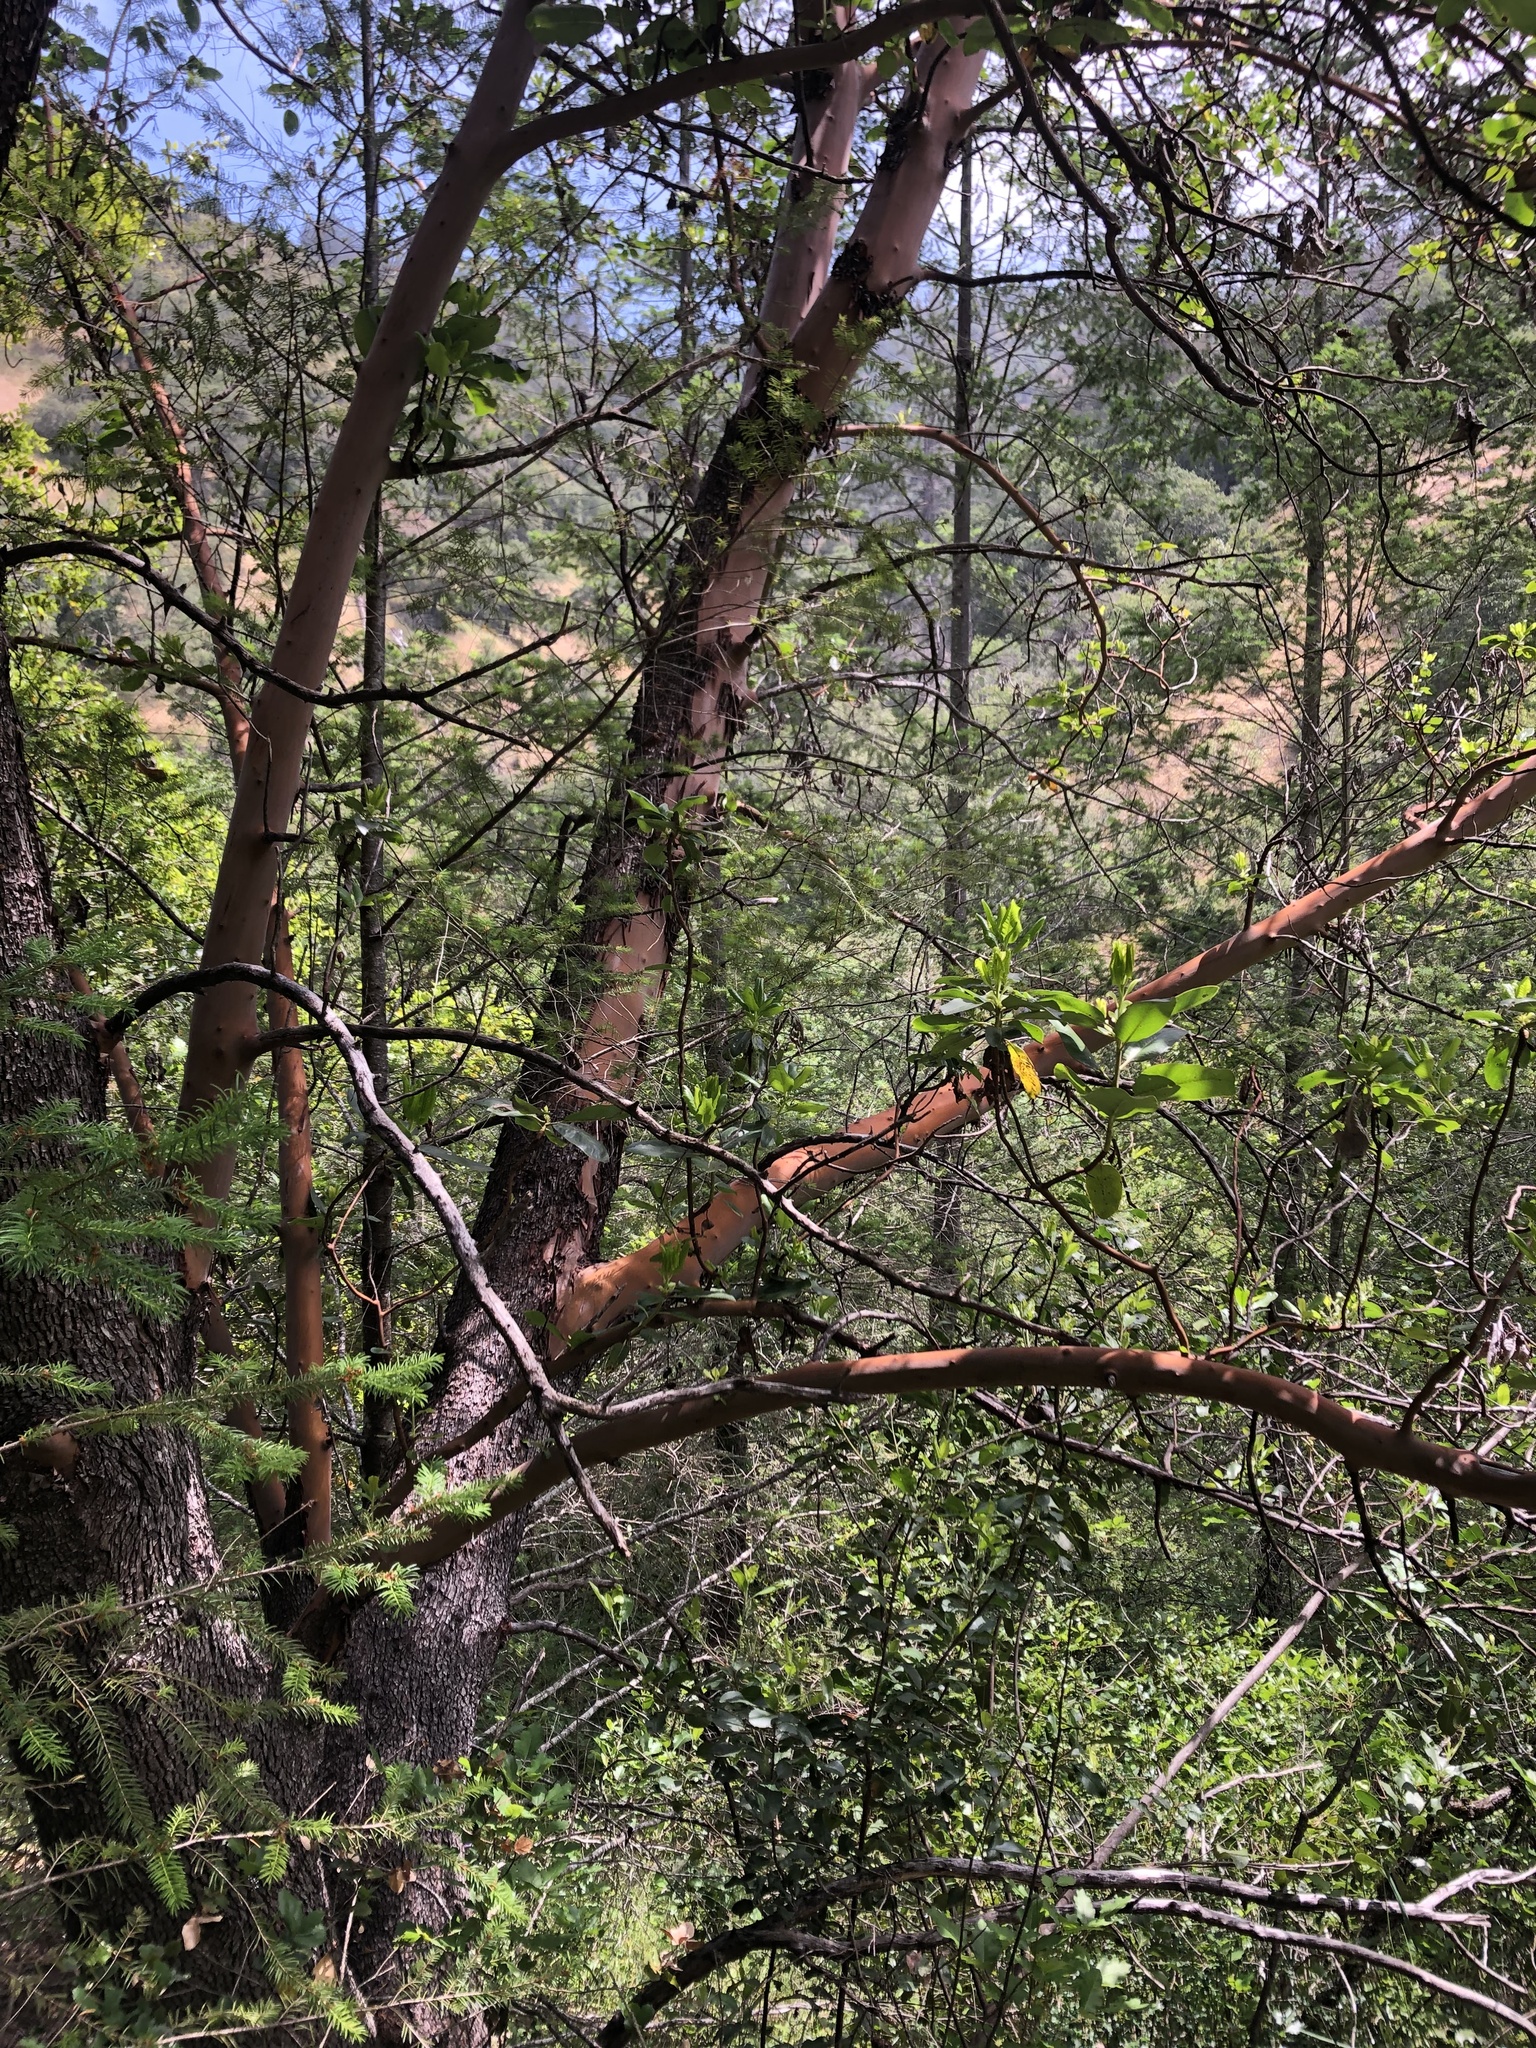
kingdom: Plantae
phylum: Tracheophyta
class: Magnoliopsida
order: Ericales
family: Ericaceae
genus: Arbutus
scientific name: Arbutus menziesii
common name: Pacific madrone
